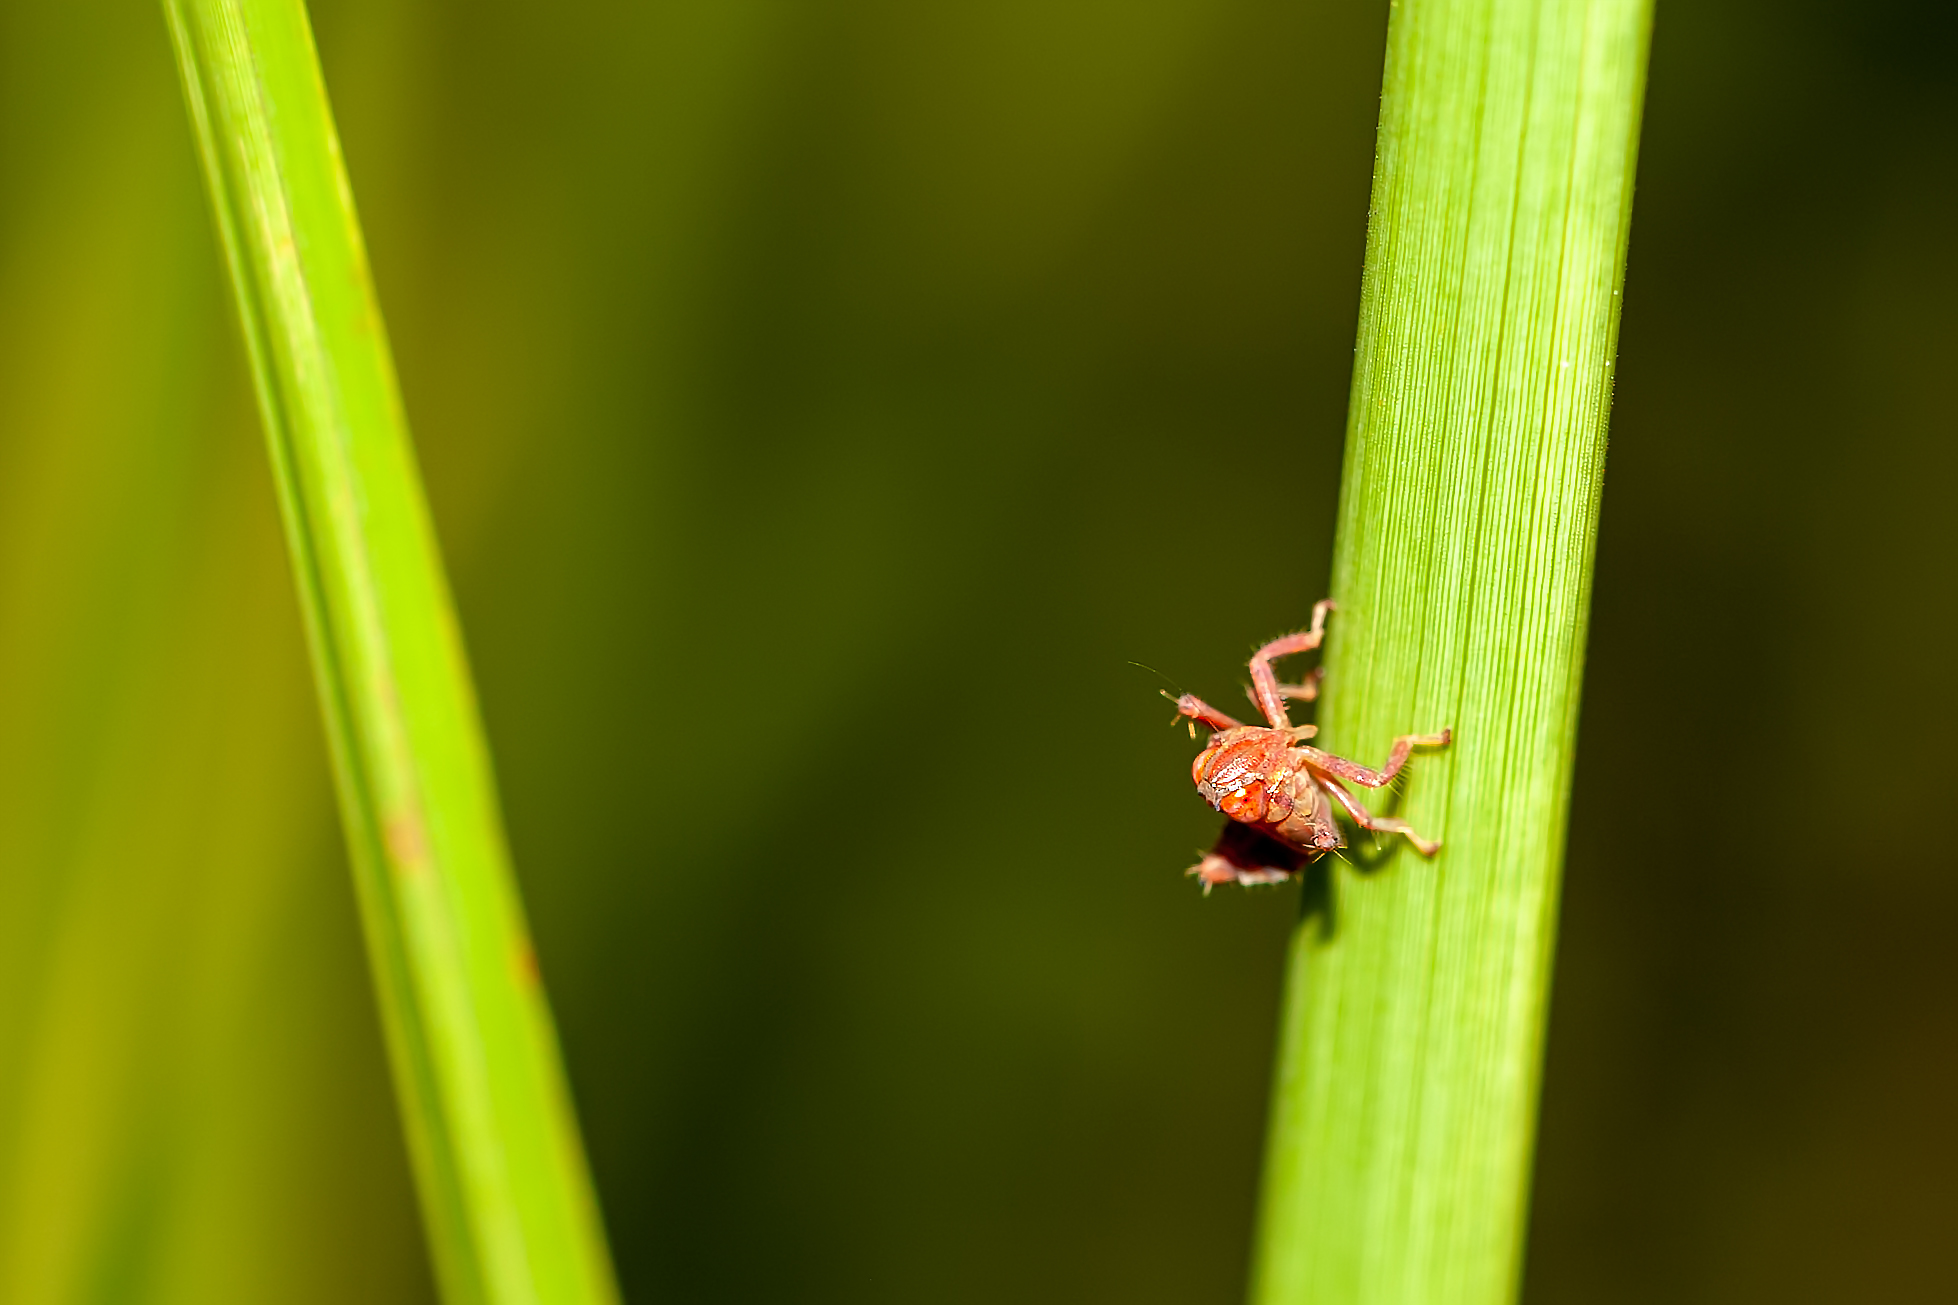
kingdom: Animalia
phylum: Arthropoda
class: Insecta
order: Hemiptera
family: Cicadellidae
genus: Jikradia
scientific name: Jikradia olitoria
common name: Coppery leafhopper
